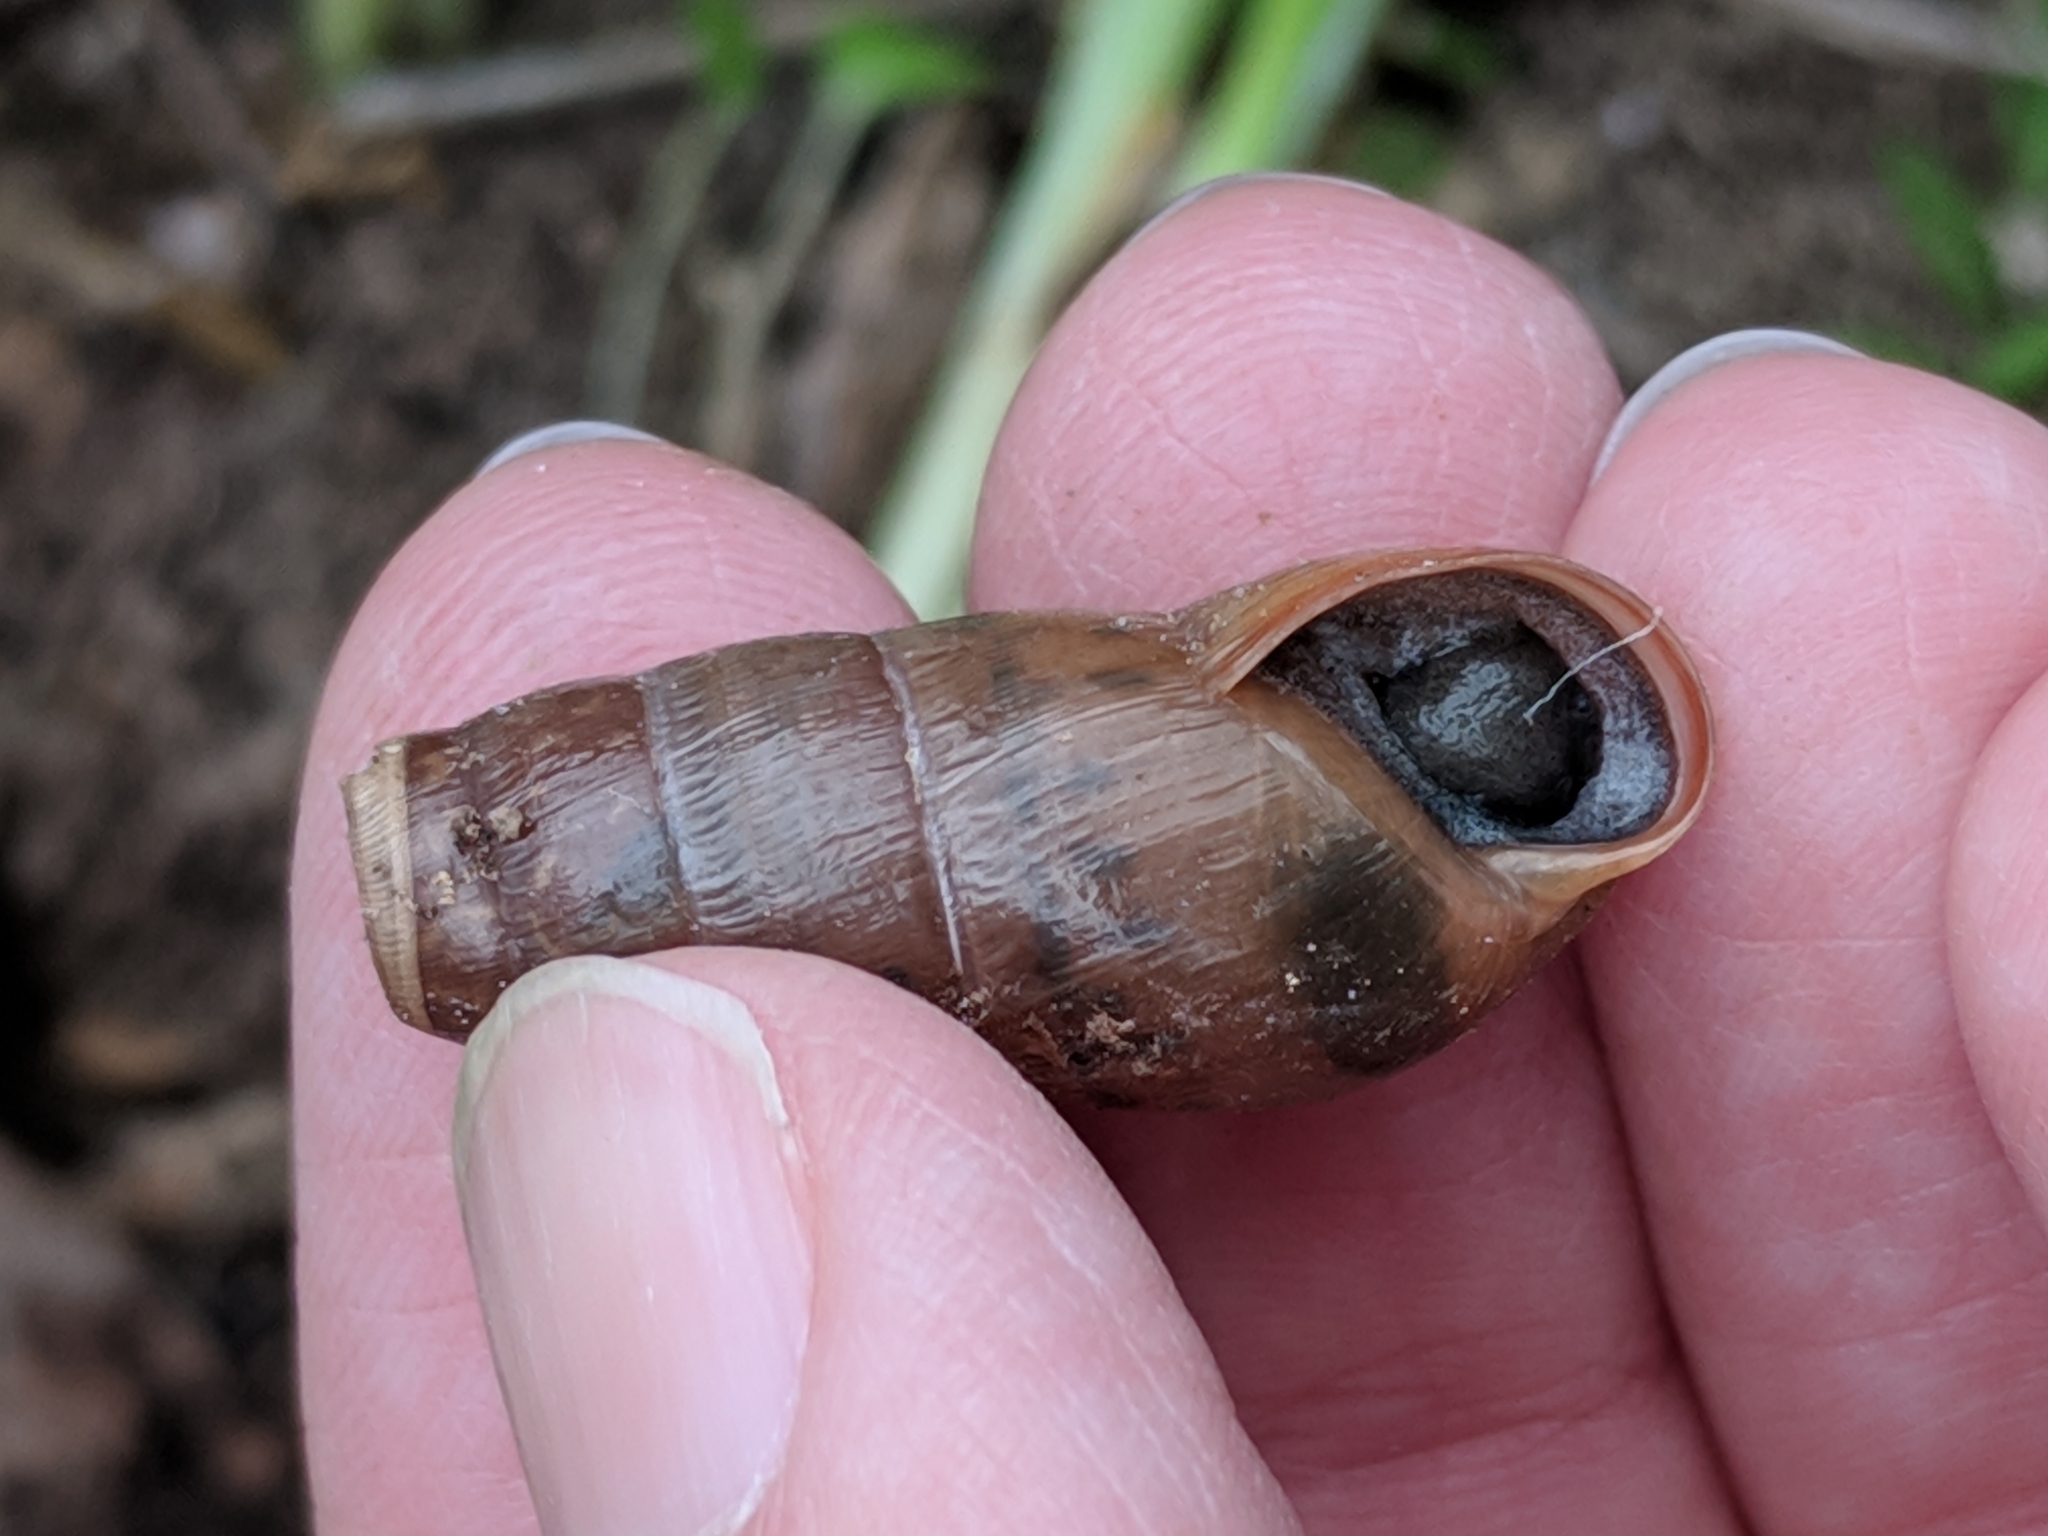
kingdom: Animalia
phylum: Mollusca
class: Gastropoda
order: Stylommatophora
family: Achatinidae
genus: Rumina
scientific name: Rumina decollata
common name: Decollate snail
